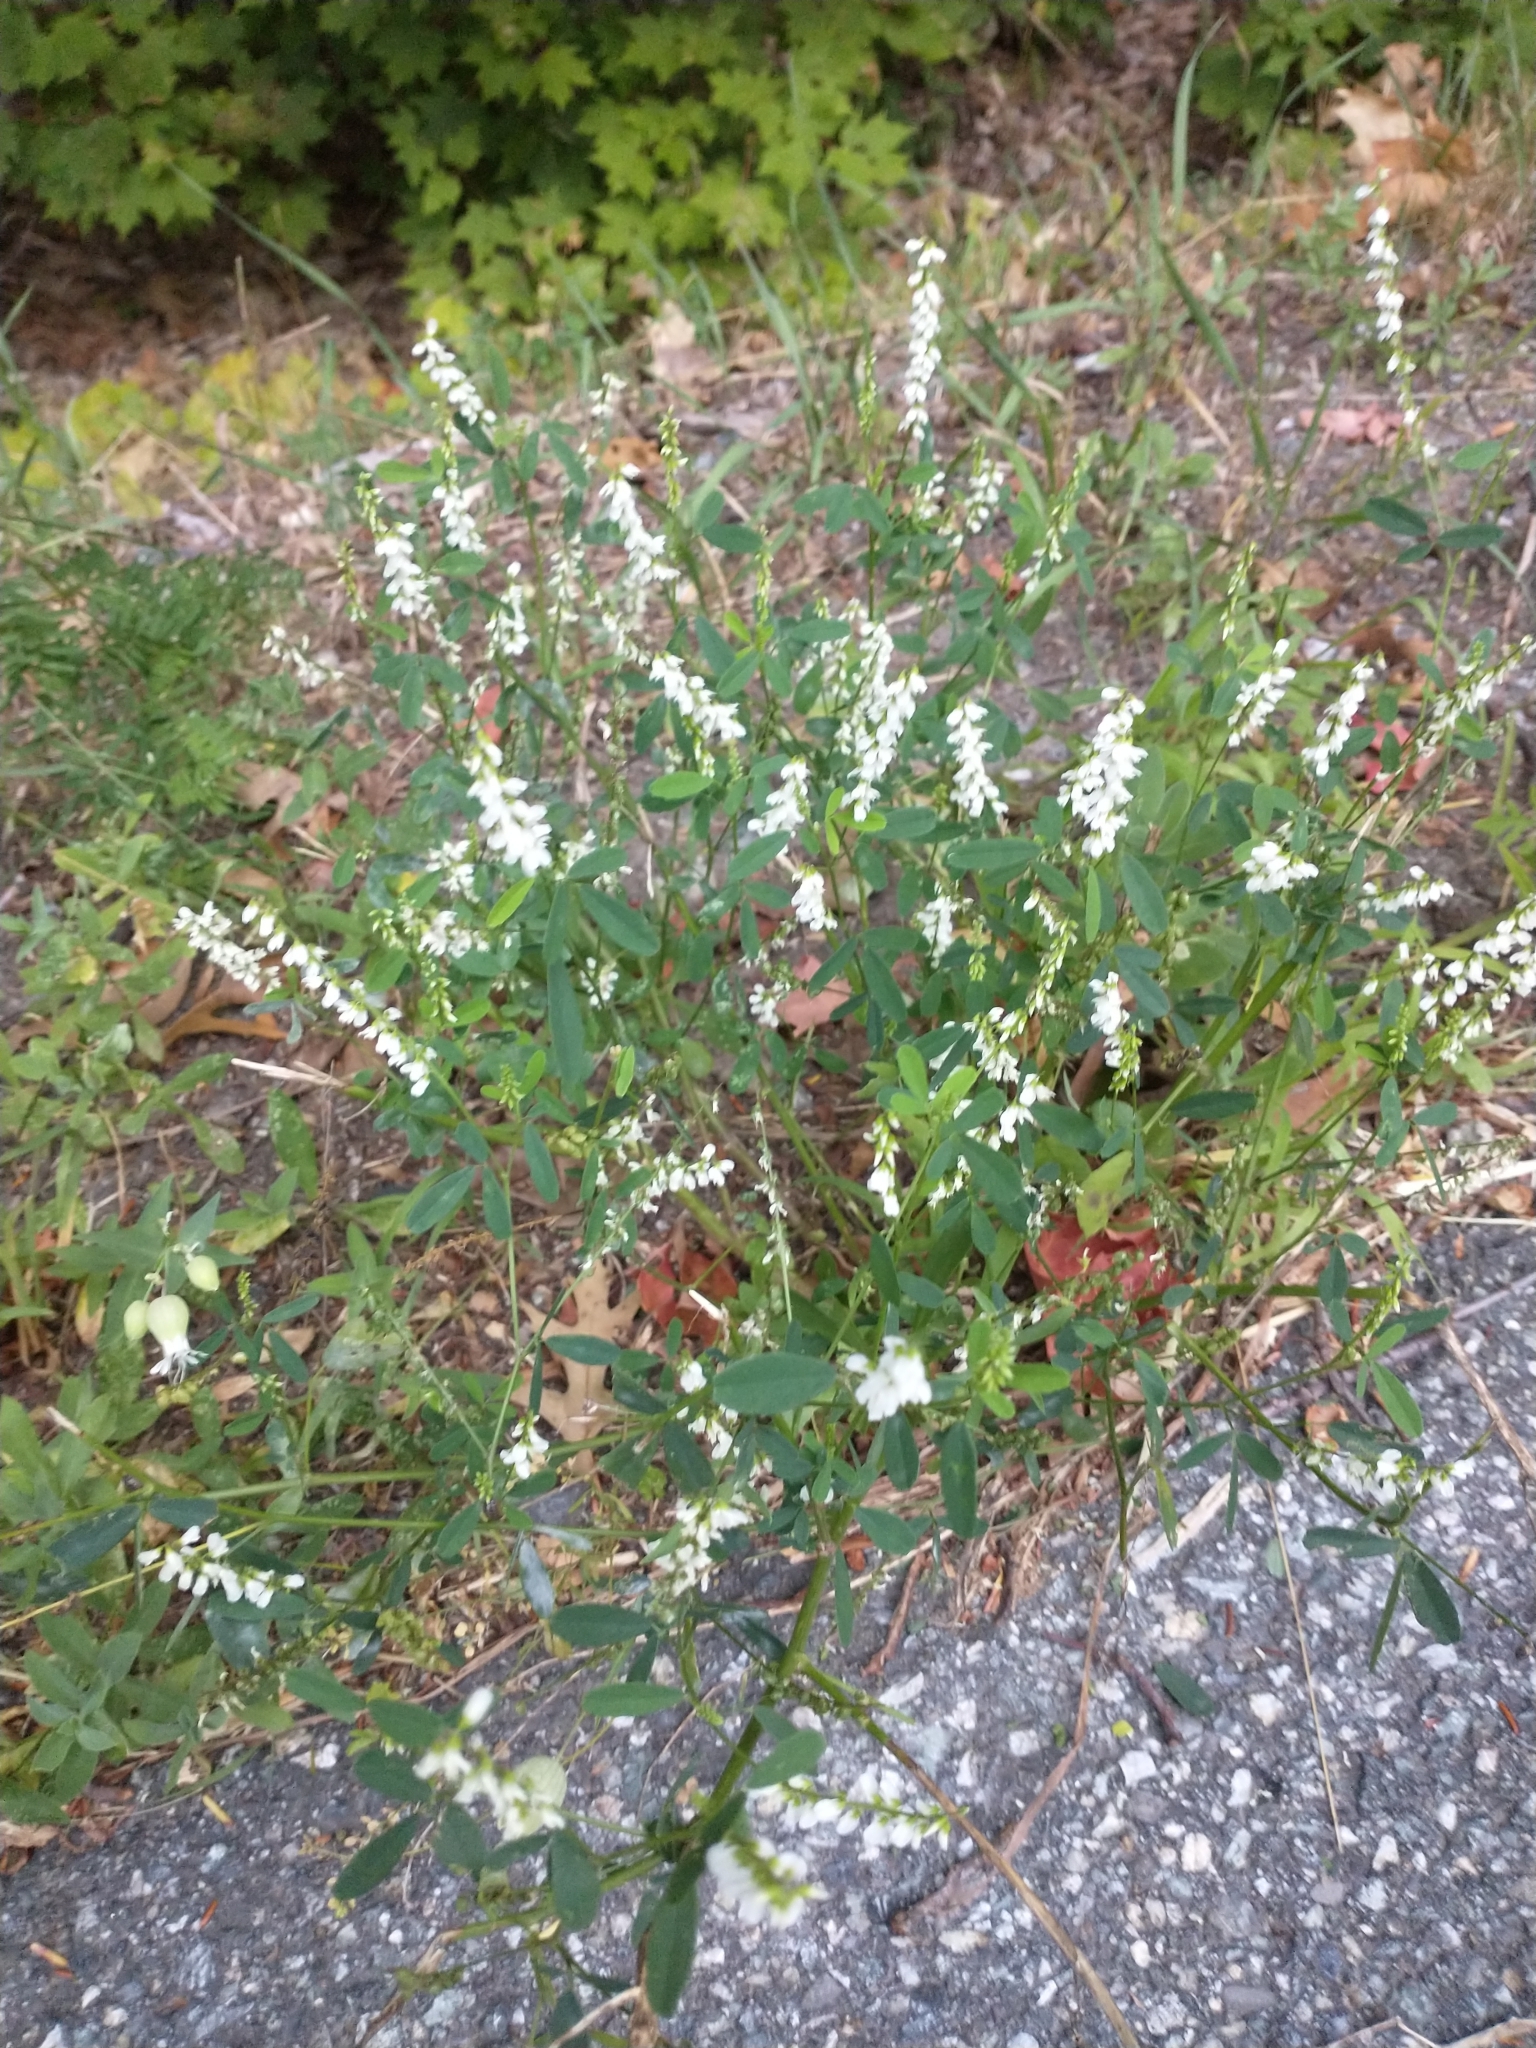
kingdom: Plantae
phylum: Tracheophyta
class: Magnoliopsida
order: Fabales
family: Fabaceae
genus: Melilotus
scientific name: Melilotus albus
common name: White melilot
